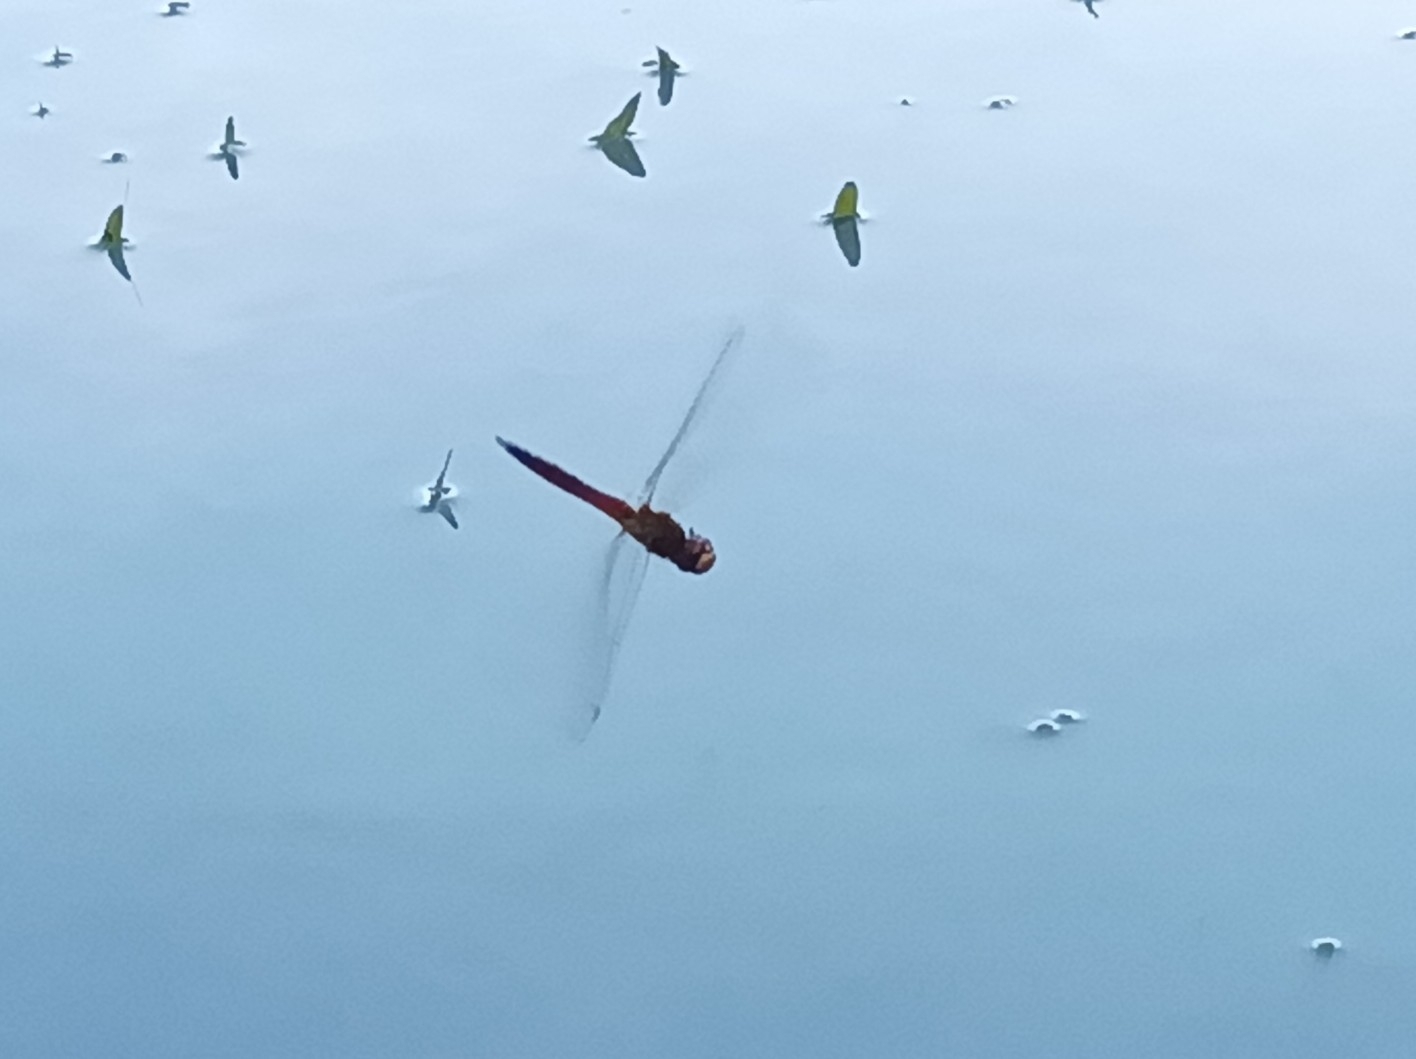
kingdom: Animalia
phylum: Arthropoda
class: Insecta
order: Odonata
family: Libellulidae
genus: Pantala
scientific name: Pantala flavescens
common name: Wandering glider
